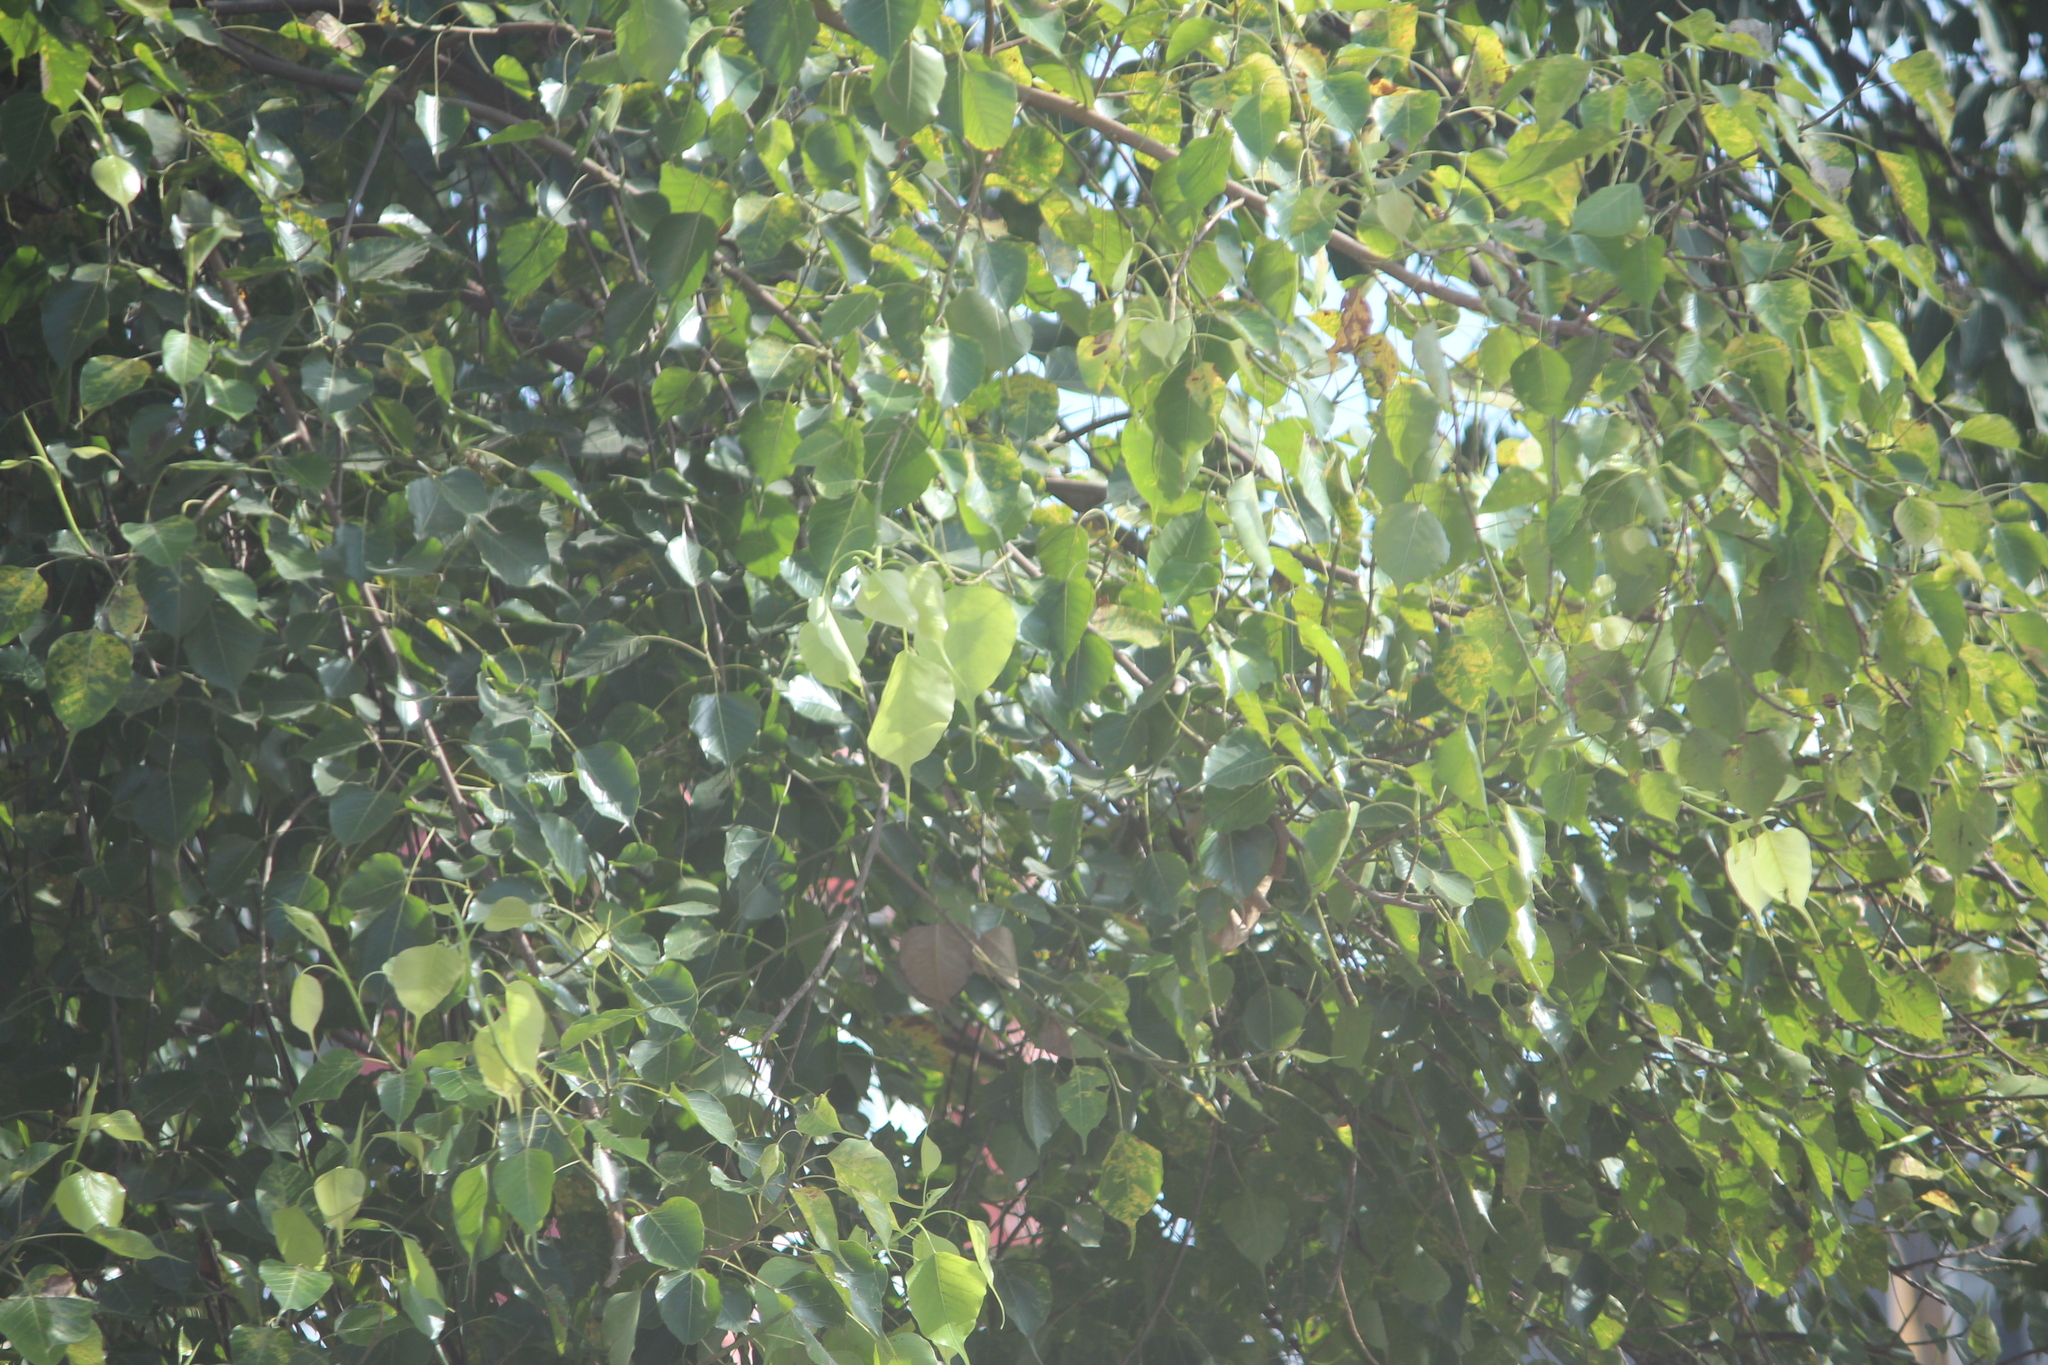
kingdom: Plantae
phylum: Tracheophyta
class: Magnoliopsida
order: Rosales
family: Moraceae
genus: Ficus
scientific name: Ficus religiosa
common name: Bodhi tree
